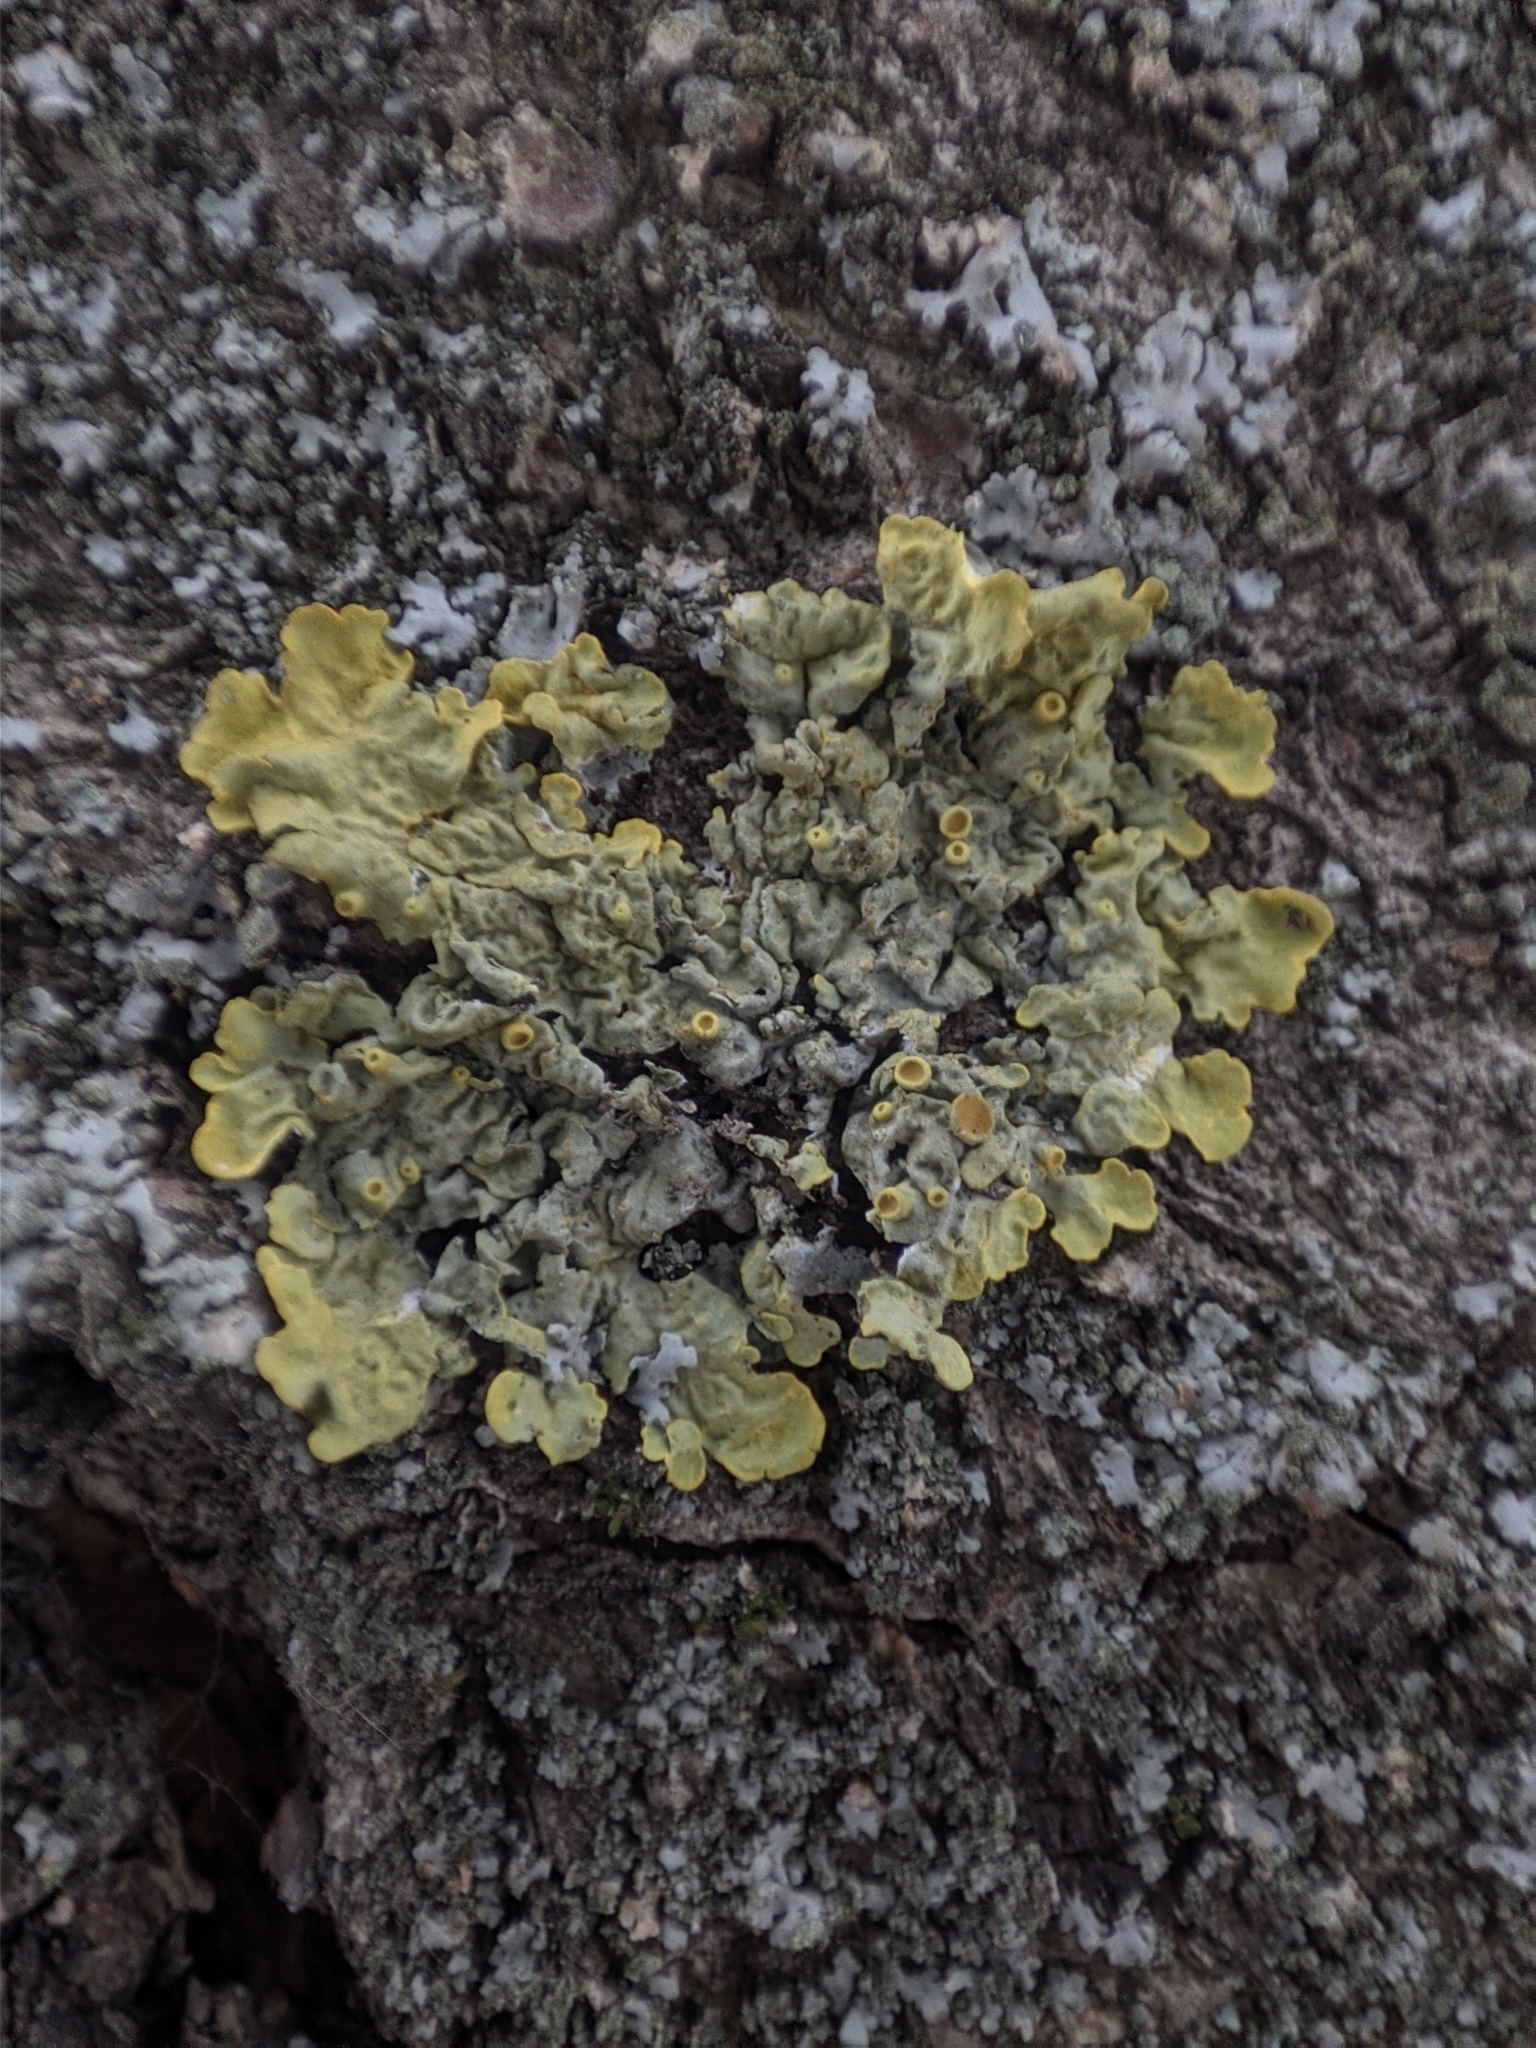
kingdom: Fungi
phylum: Ascomycota
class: Lecanoromycetes
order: Teloschistales
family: Teloschistaceae
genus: Xanthoria
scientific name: Xanthoria parietina
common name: Common orange lichen
